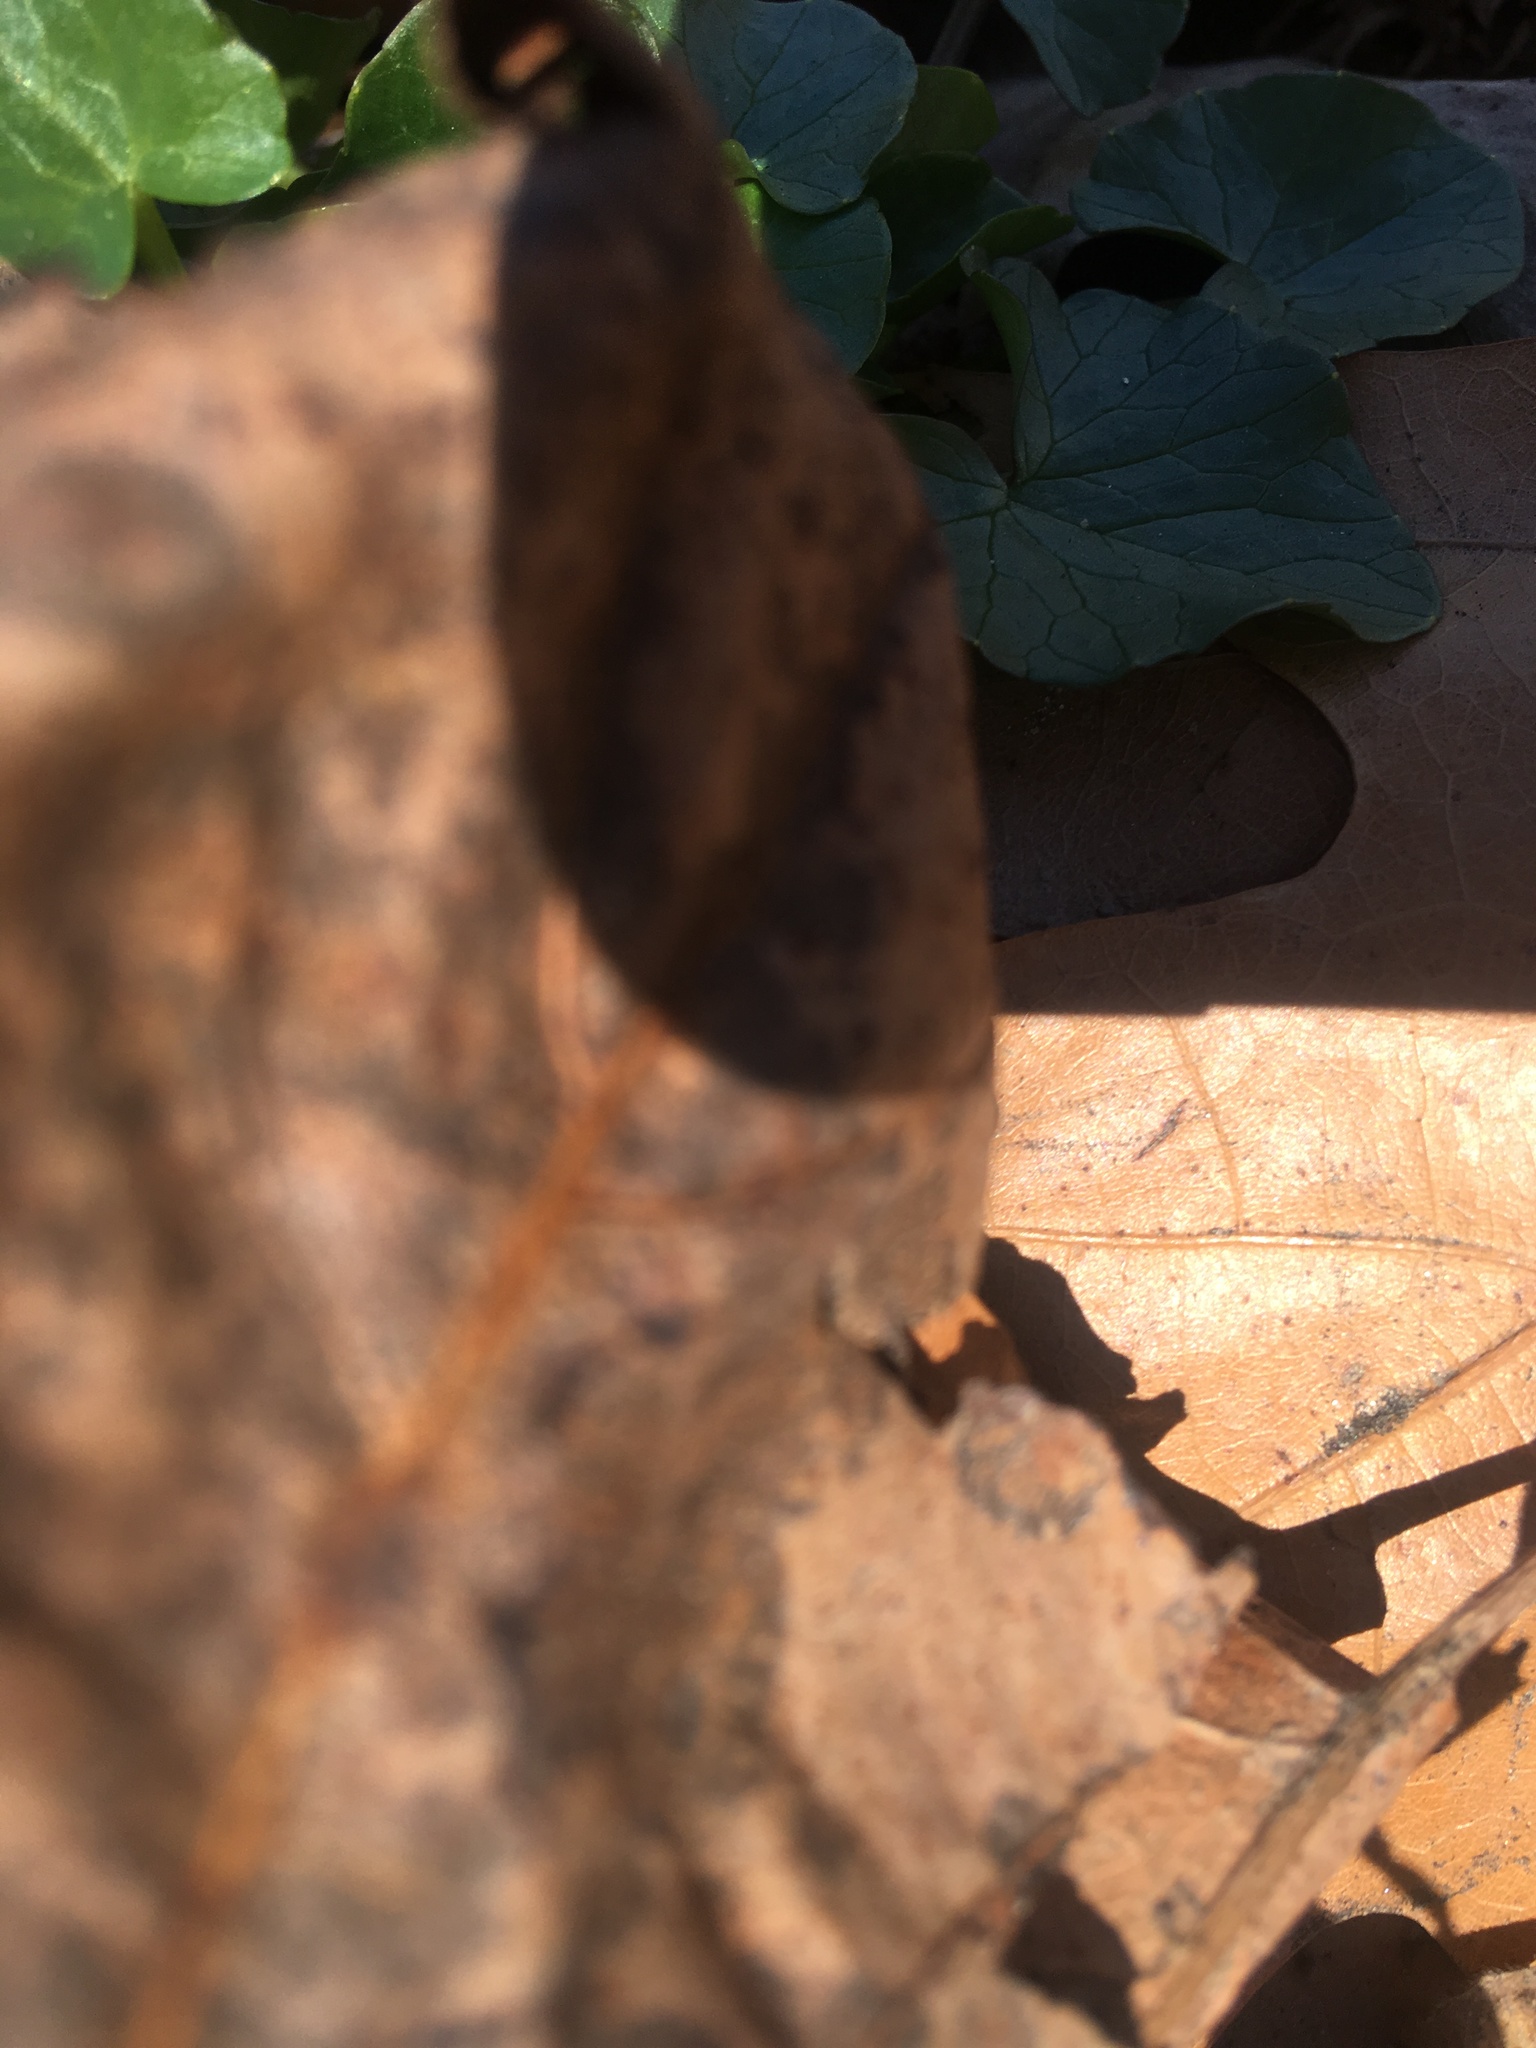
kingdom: Plantae
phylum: Tracheophyta
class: Magnoliopsida
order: Ranunculales
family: Ranunculaceae
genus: Ficaria
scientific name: Ficaria verna
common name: Lesser celandine
